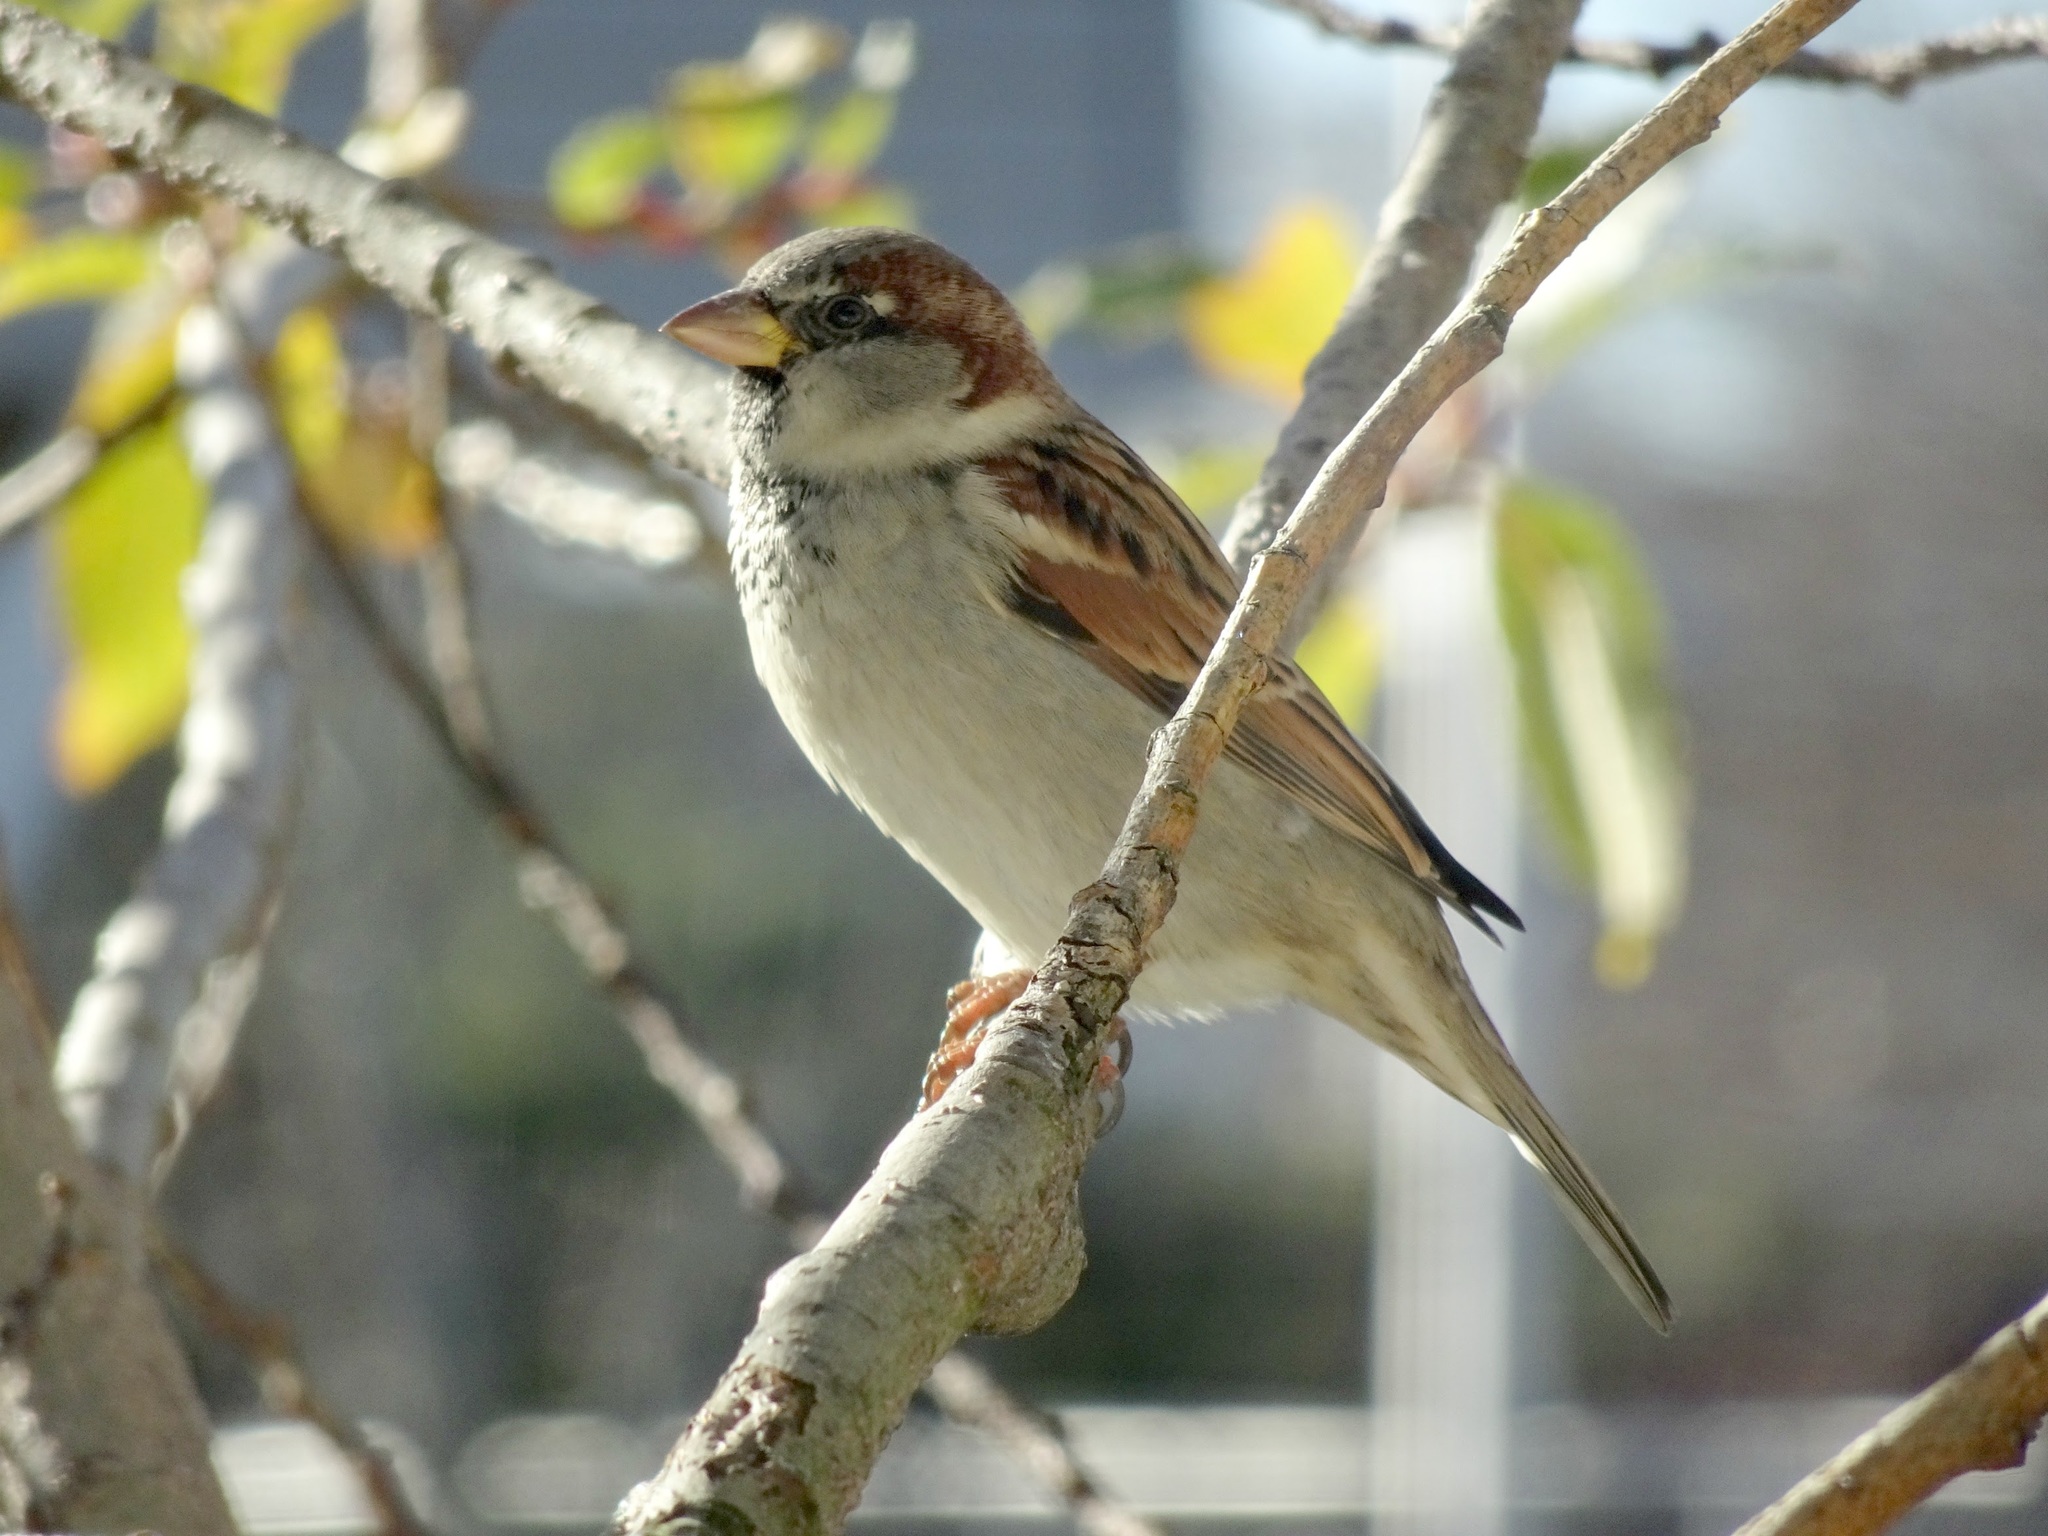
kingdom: Animalia
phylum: Chordata
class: Aves
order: Passeriformes
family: Passeridae
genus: Passer
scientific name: Passer domesticus
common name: House sparrow
